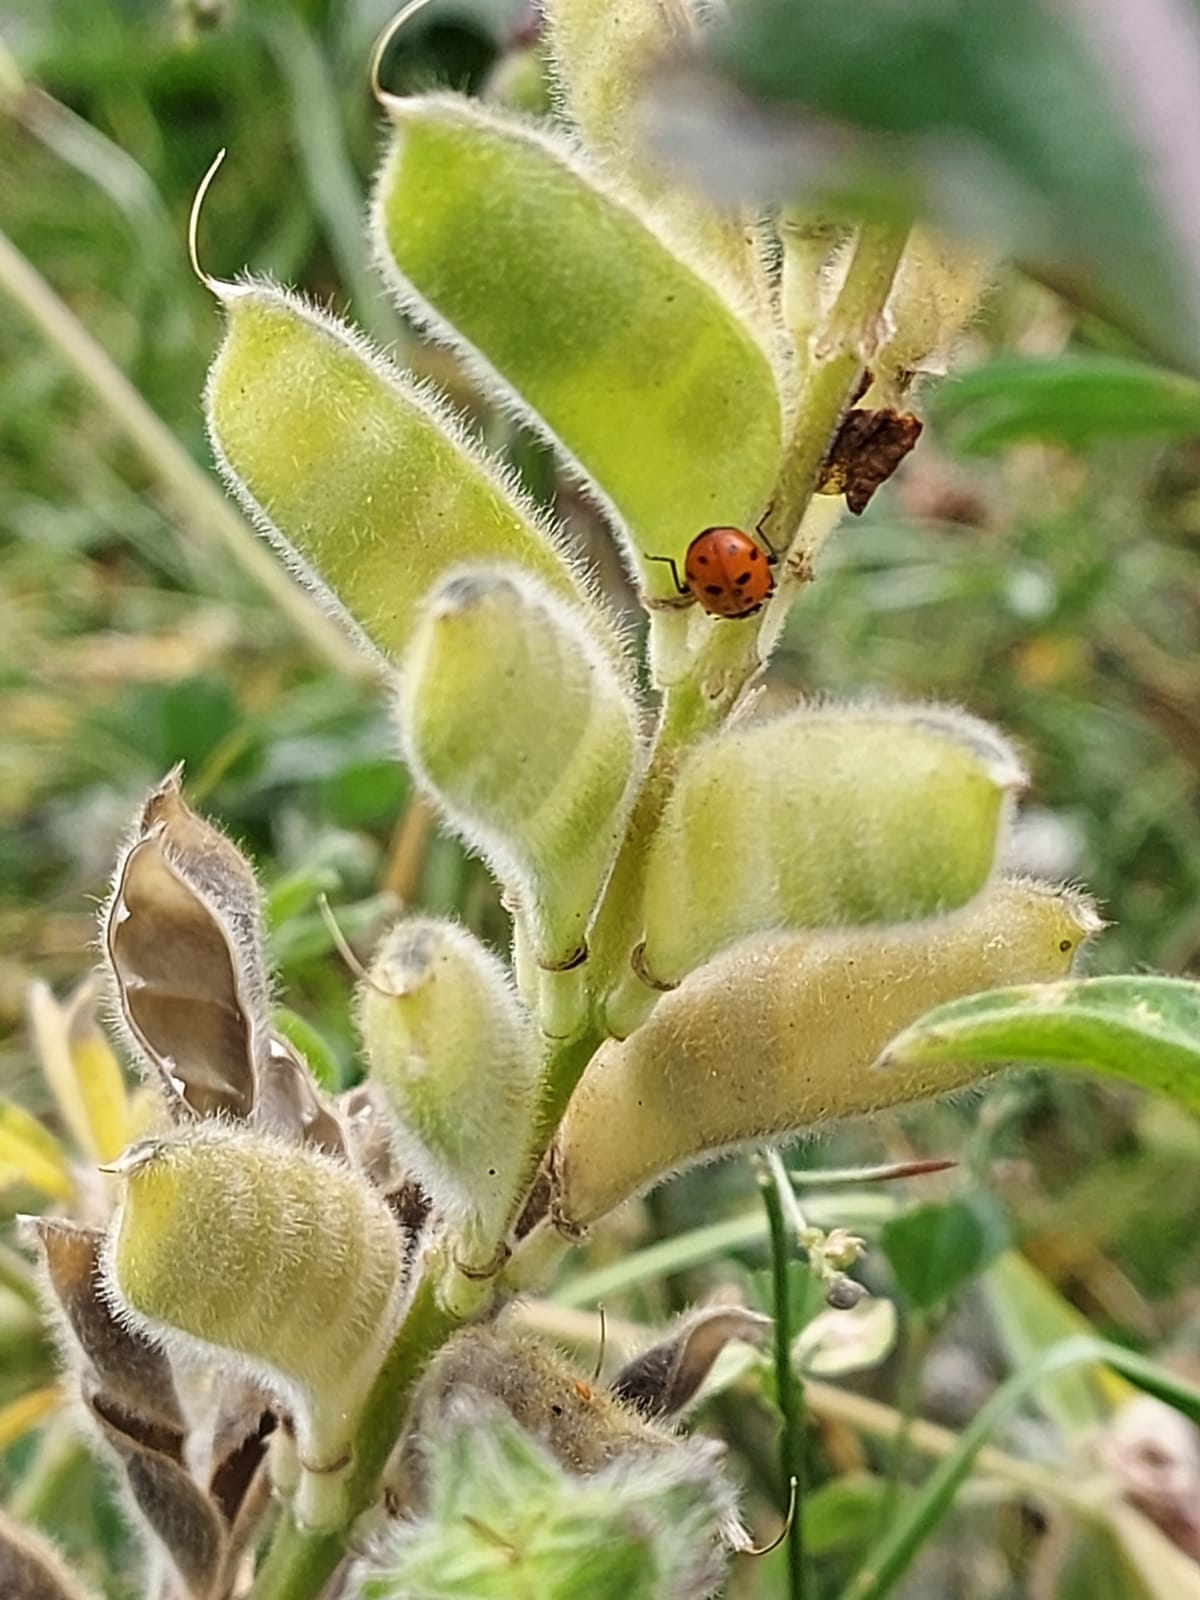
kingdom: Animalia
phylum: Arthropoda
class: Insecta
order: Coleoptera
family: Coccinellidae
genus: Hippodamia
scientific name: Hippodamia convergens
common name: Convergent lady beetle
